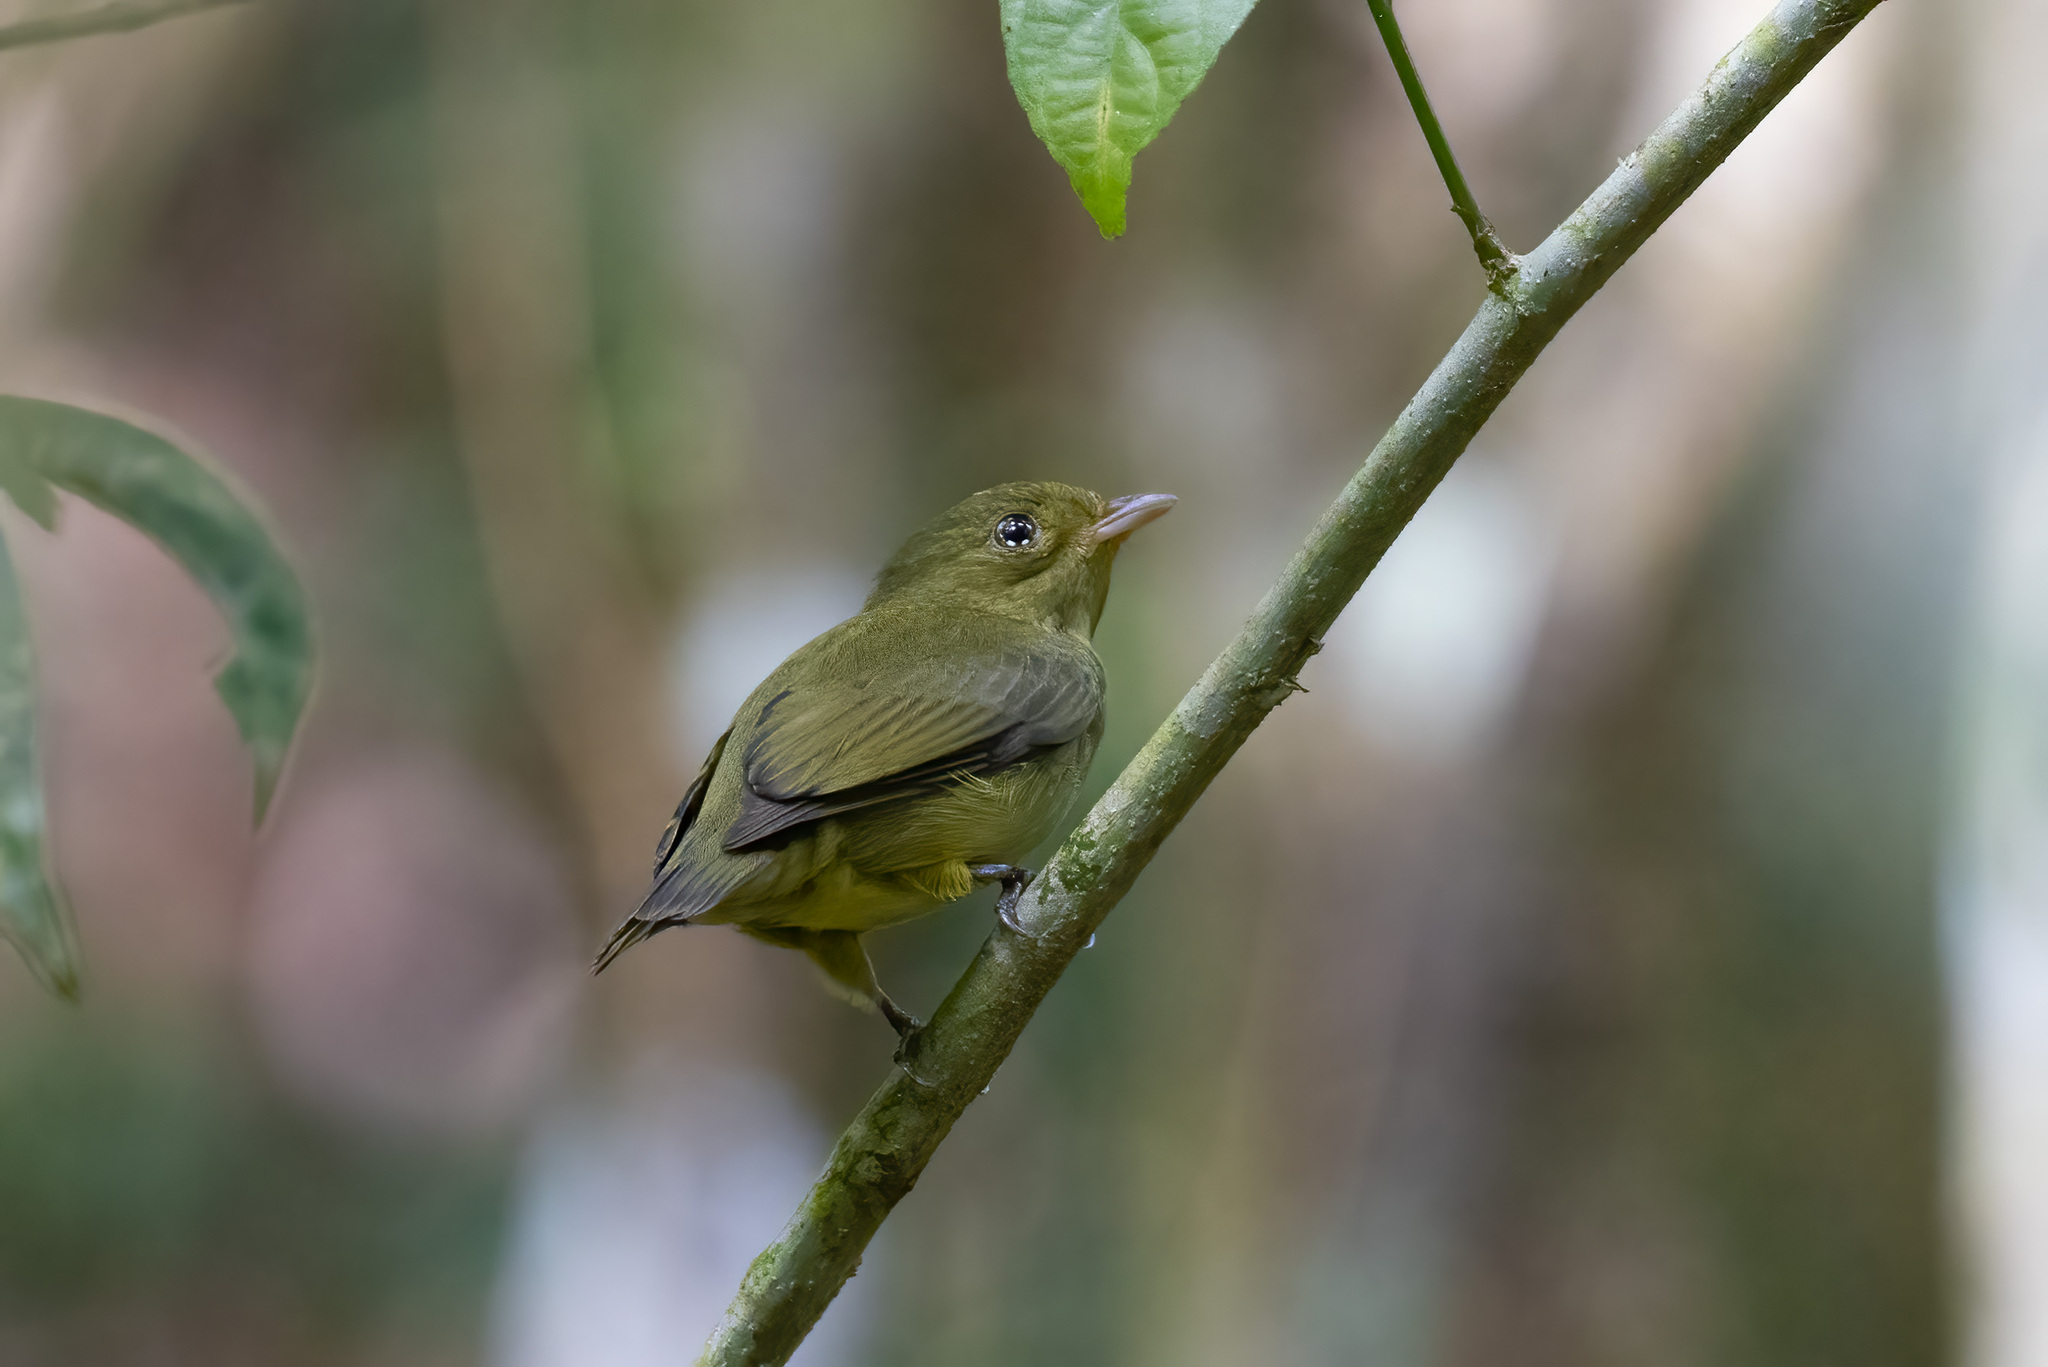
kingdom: Animalia
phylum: Chordata
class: Aves
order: Passeriformes
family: Pipridae
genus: Pipra
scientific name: Pipra mentalis
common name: Red-capped manakin
